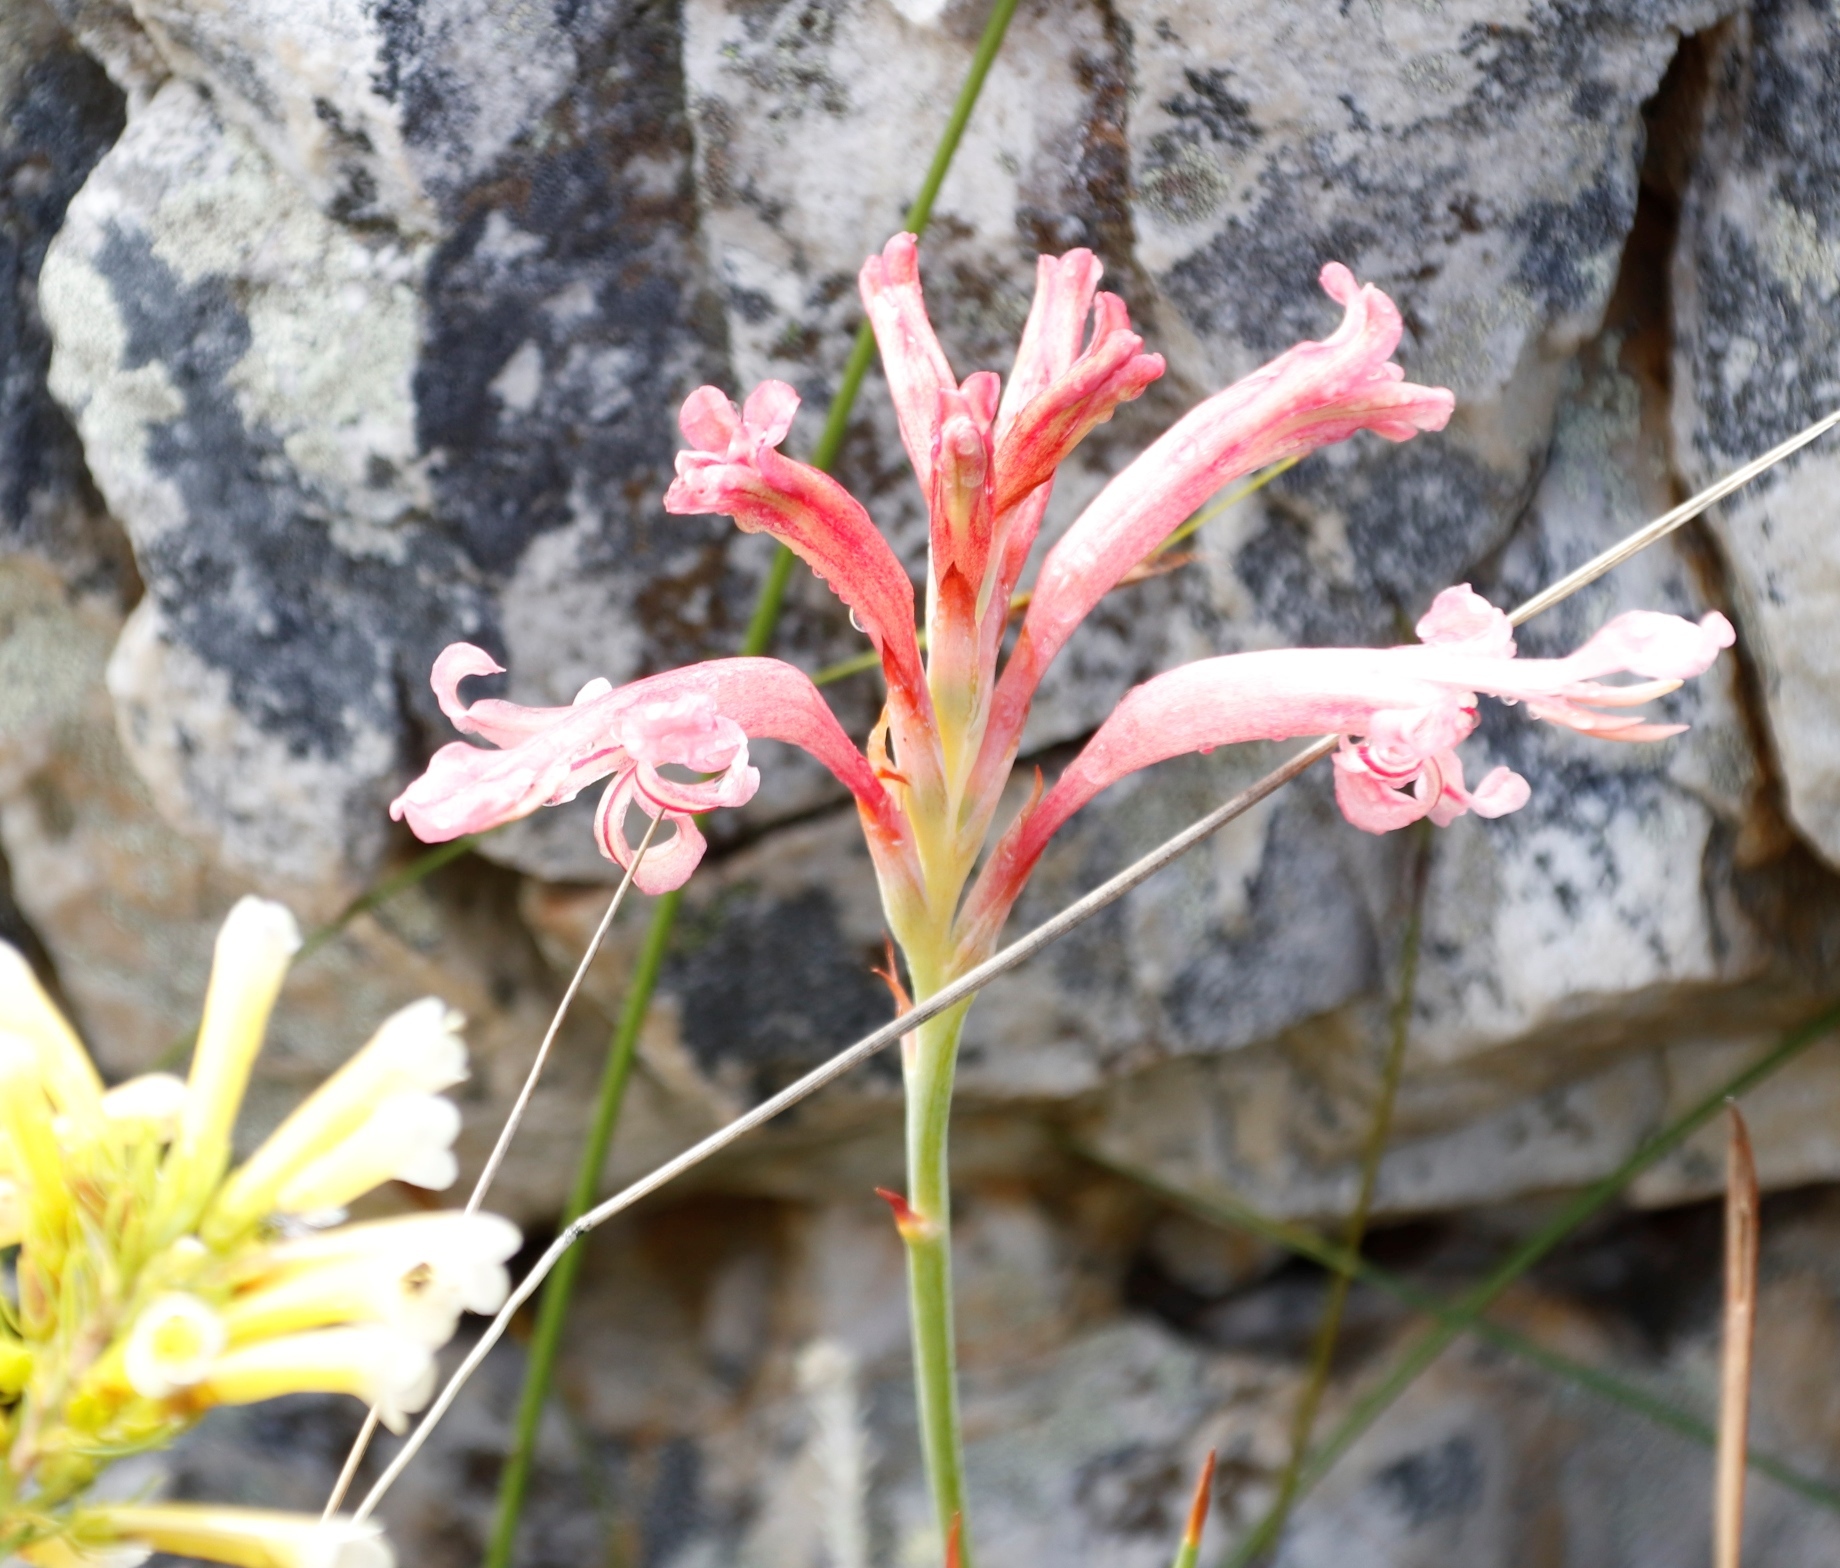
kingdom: Plantae
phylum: Tracheophyta
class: Liliopsida
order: Asparagales
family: Iridaceae
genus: Tritoniopsis
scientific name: Tritoniopsis antholyza
